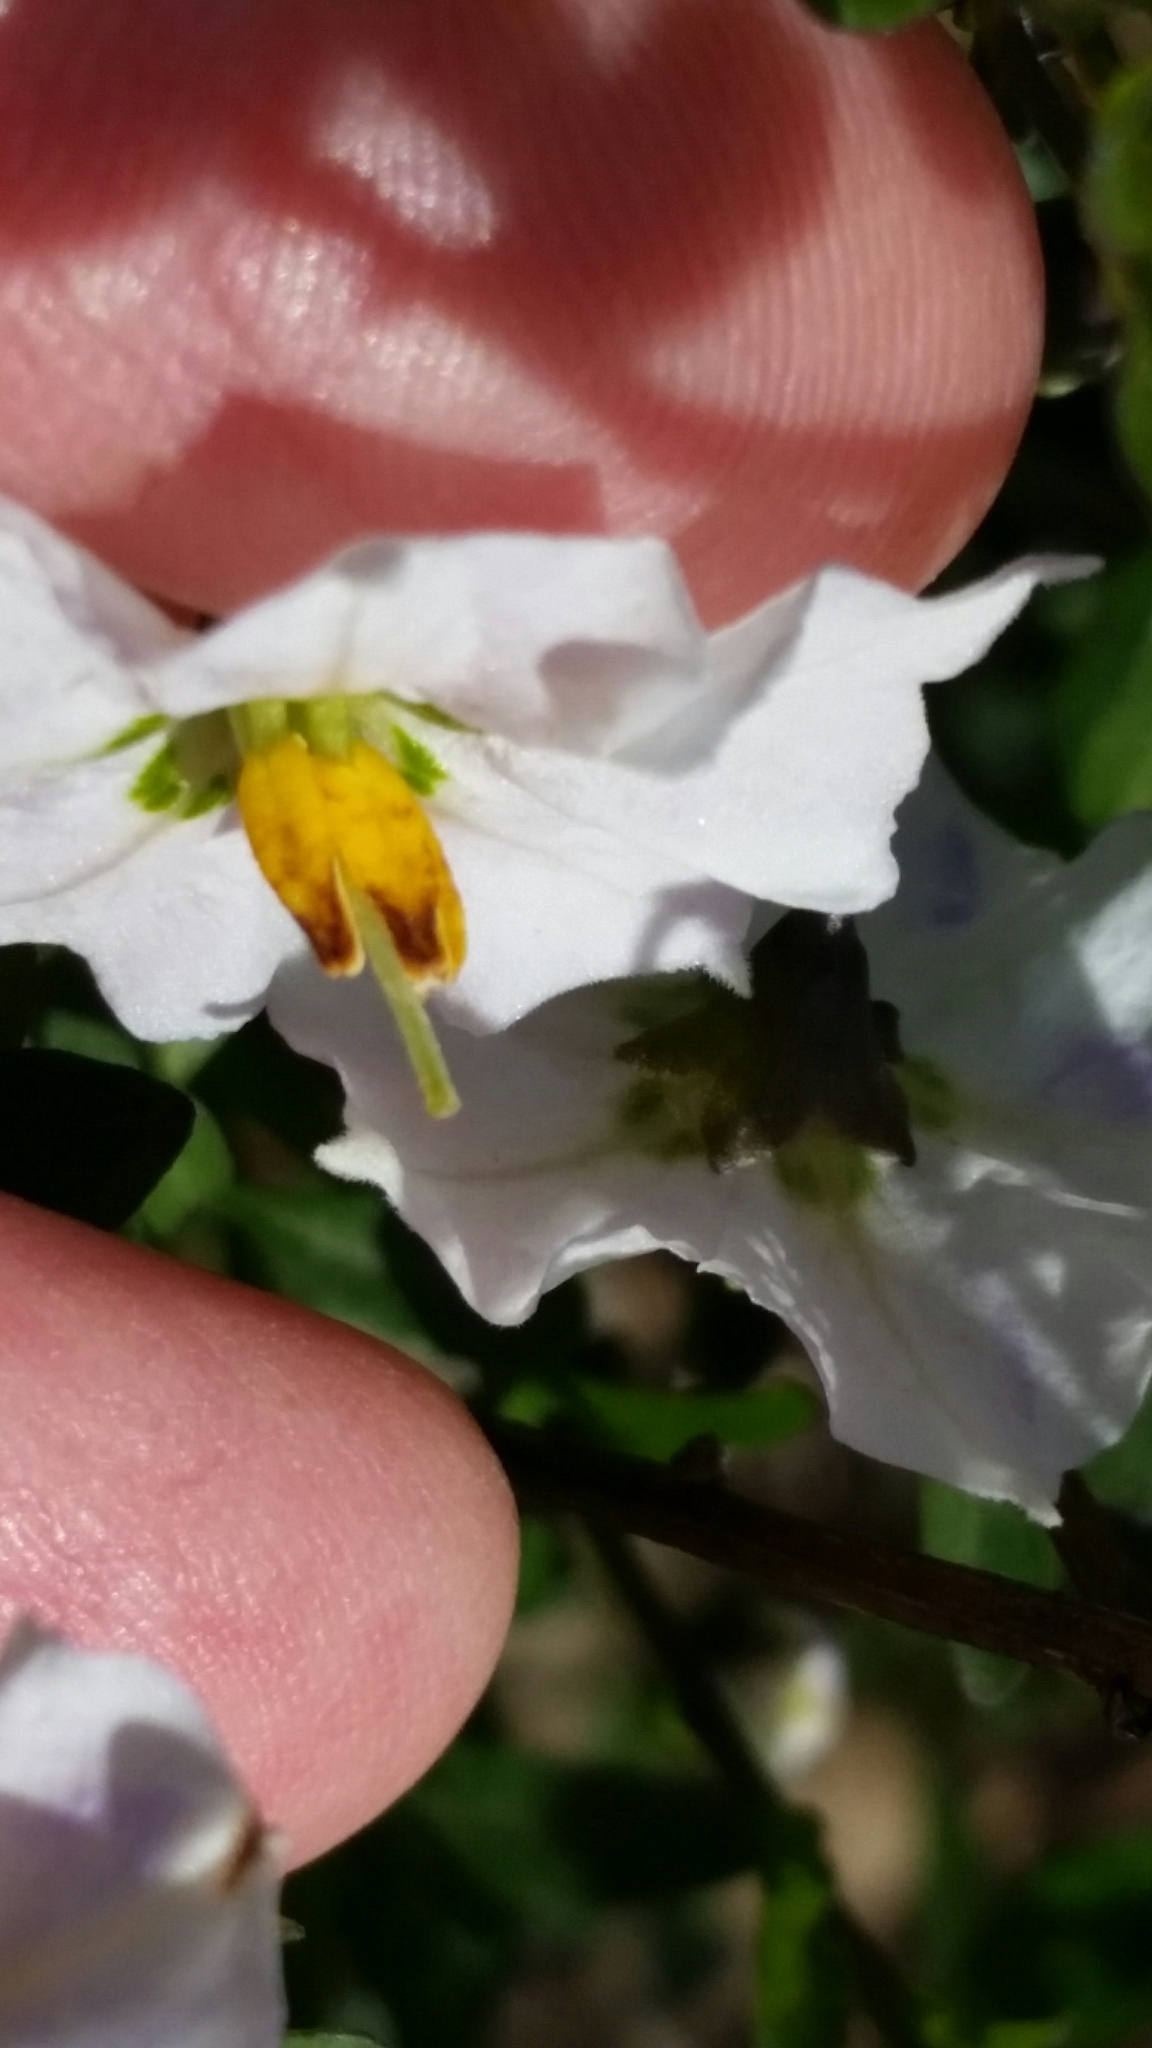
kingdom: Plantae
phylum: Tracheophyta
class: Magnoliopsida
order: Solanales
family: Solanaceae
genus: Solanum
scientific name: Solanum umbelliferum
